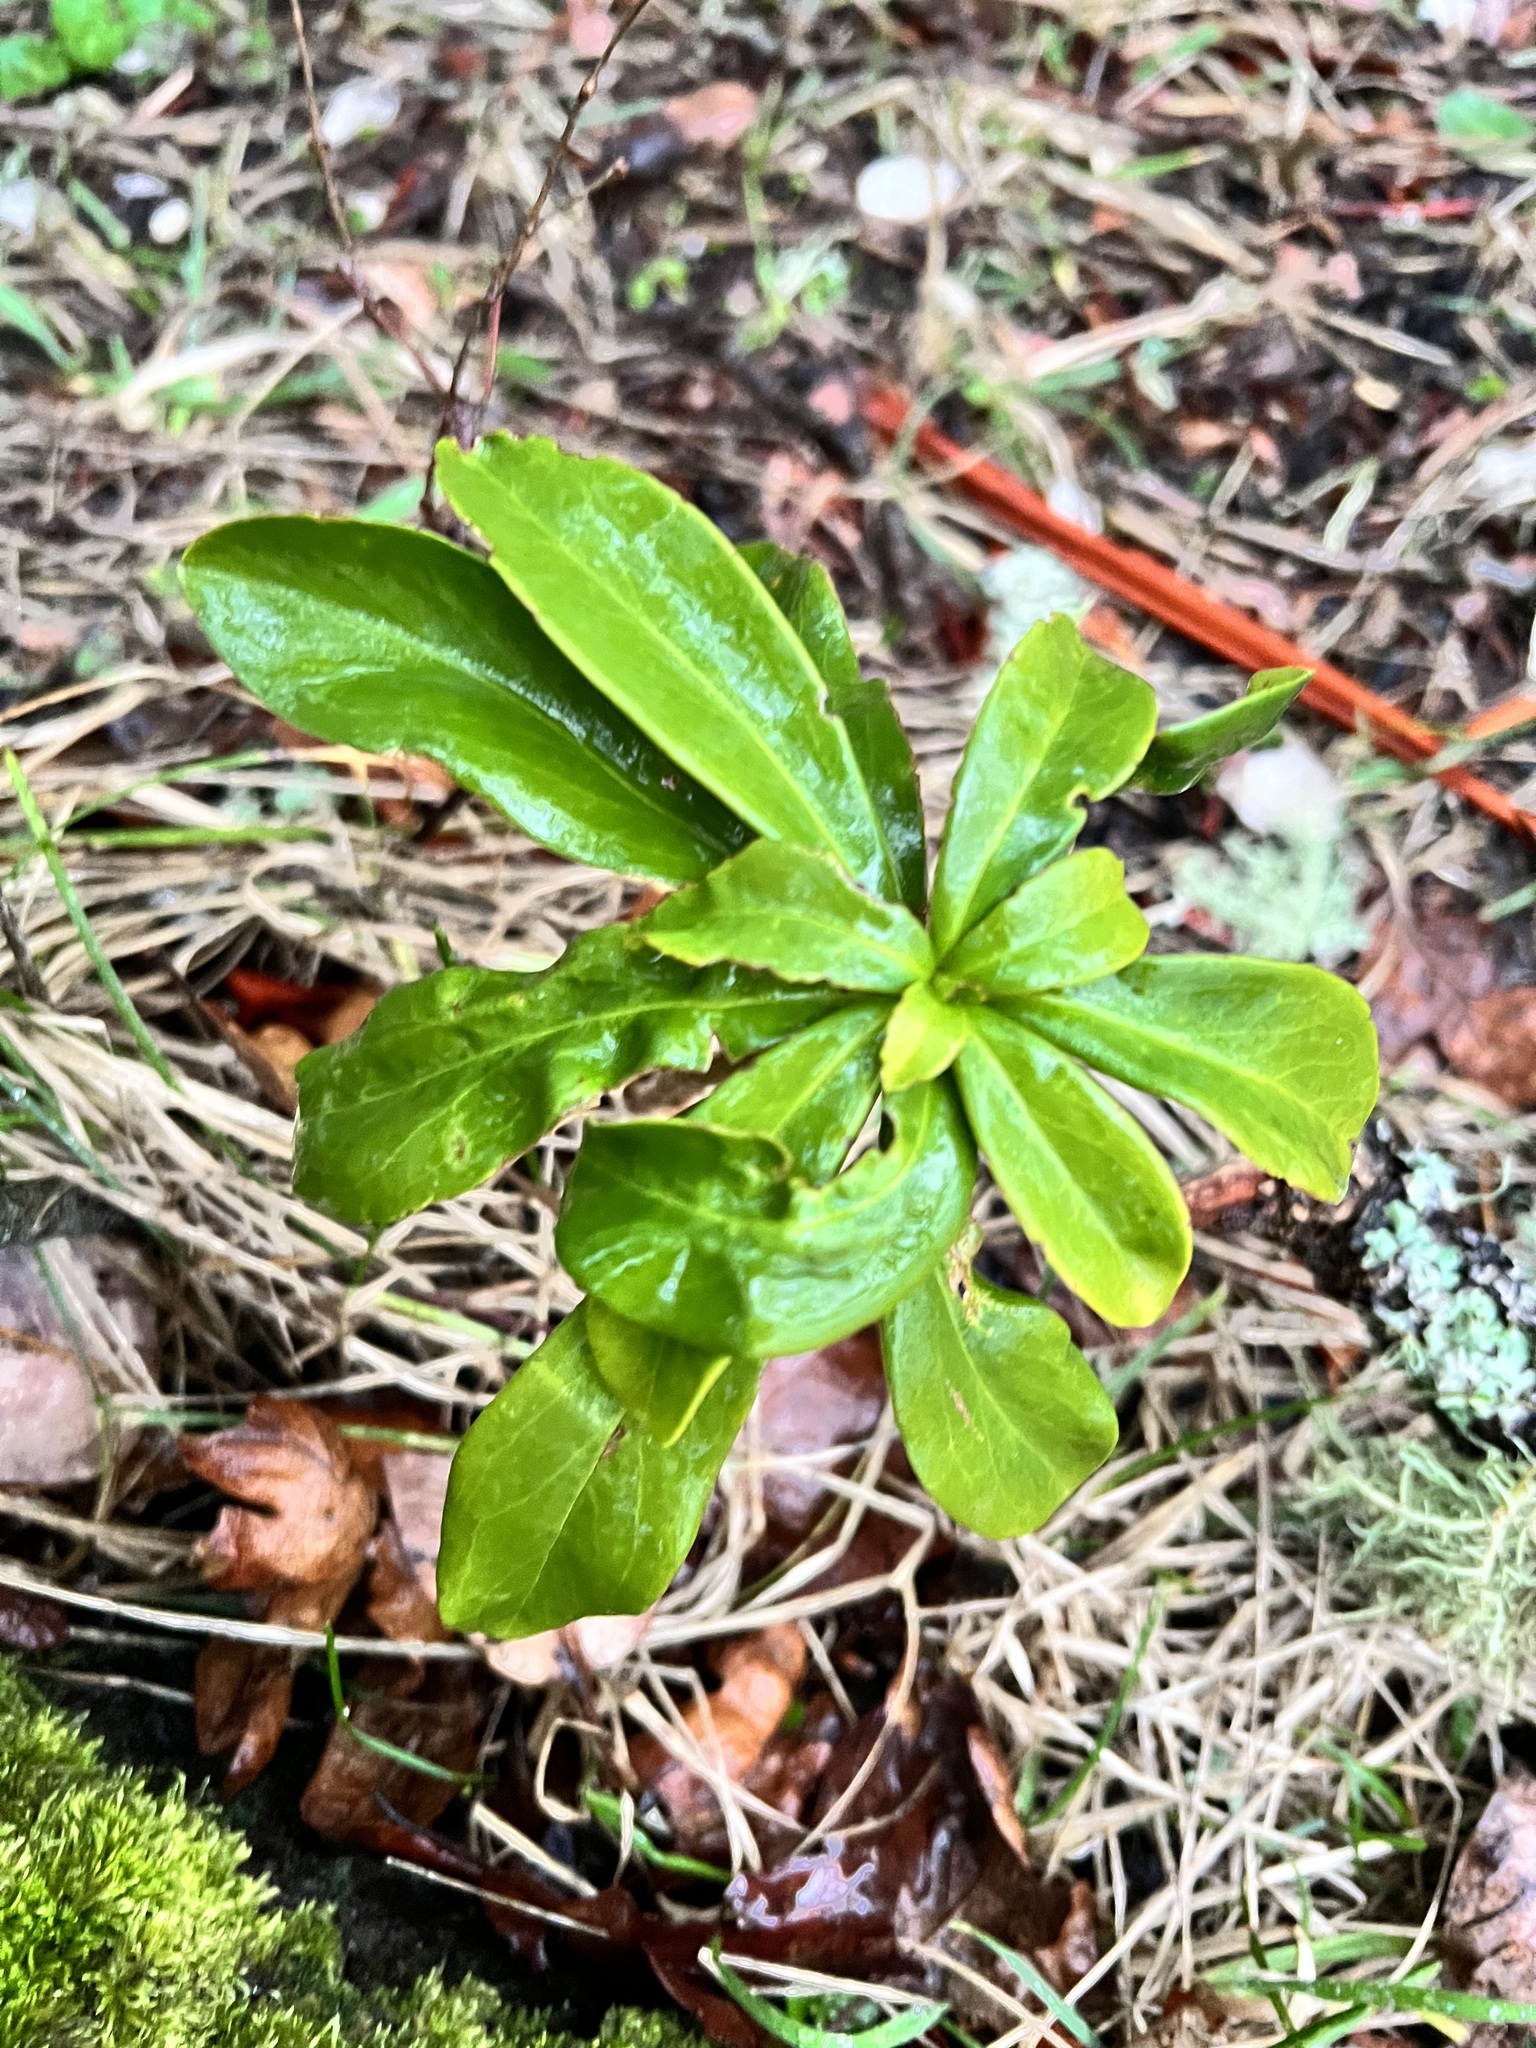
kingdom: Plantae
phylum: Tracheophyta
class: Magnoliopsida
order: Malvales
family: Thymelaeaceae
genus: Daphne
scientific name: Daphne laureola
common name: Spurge-laurel
